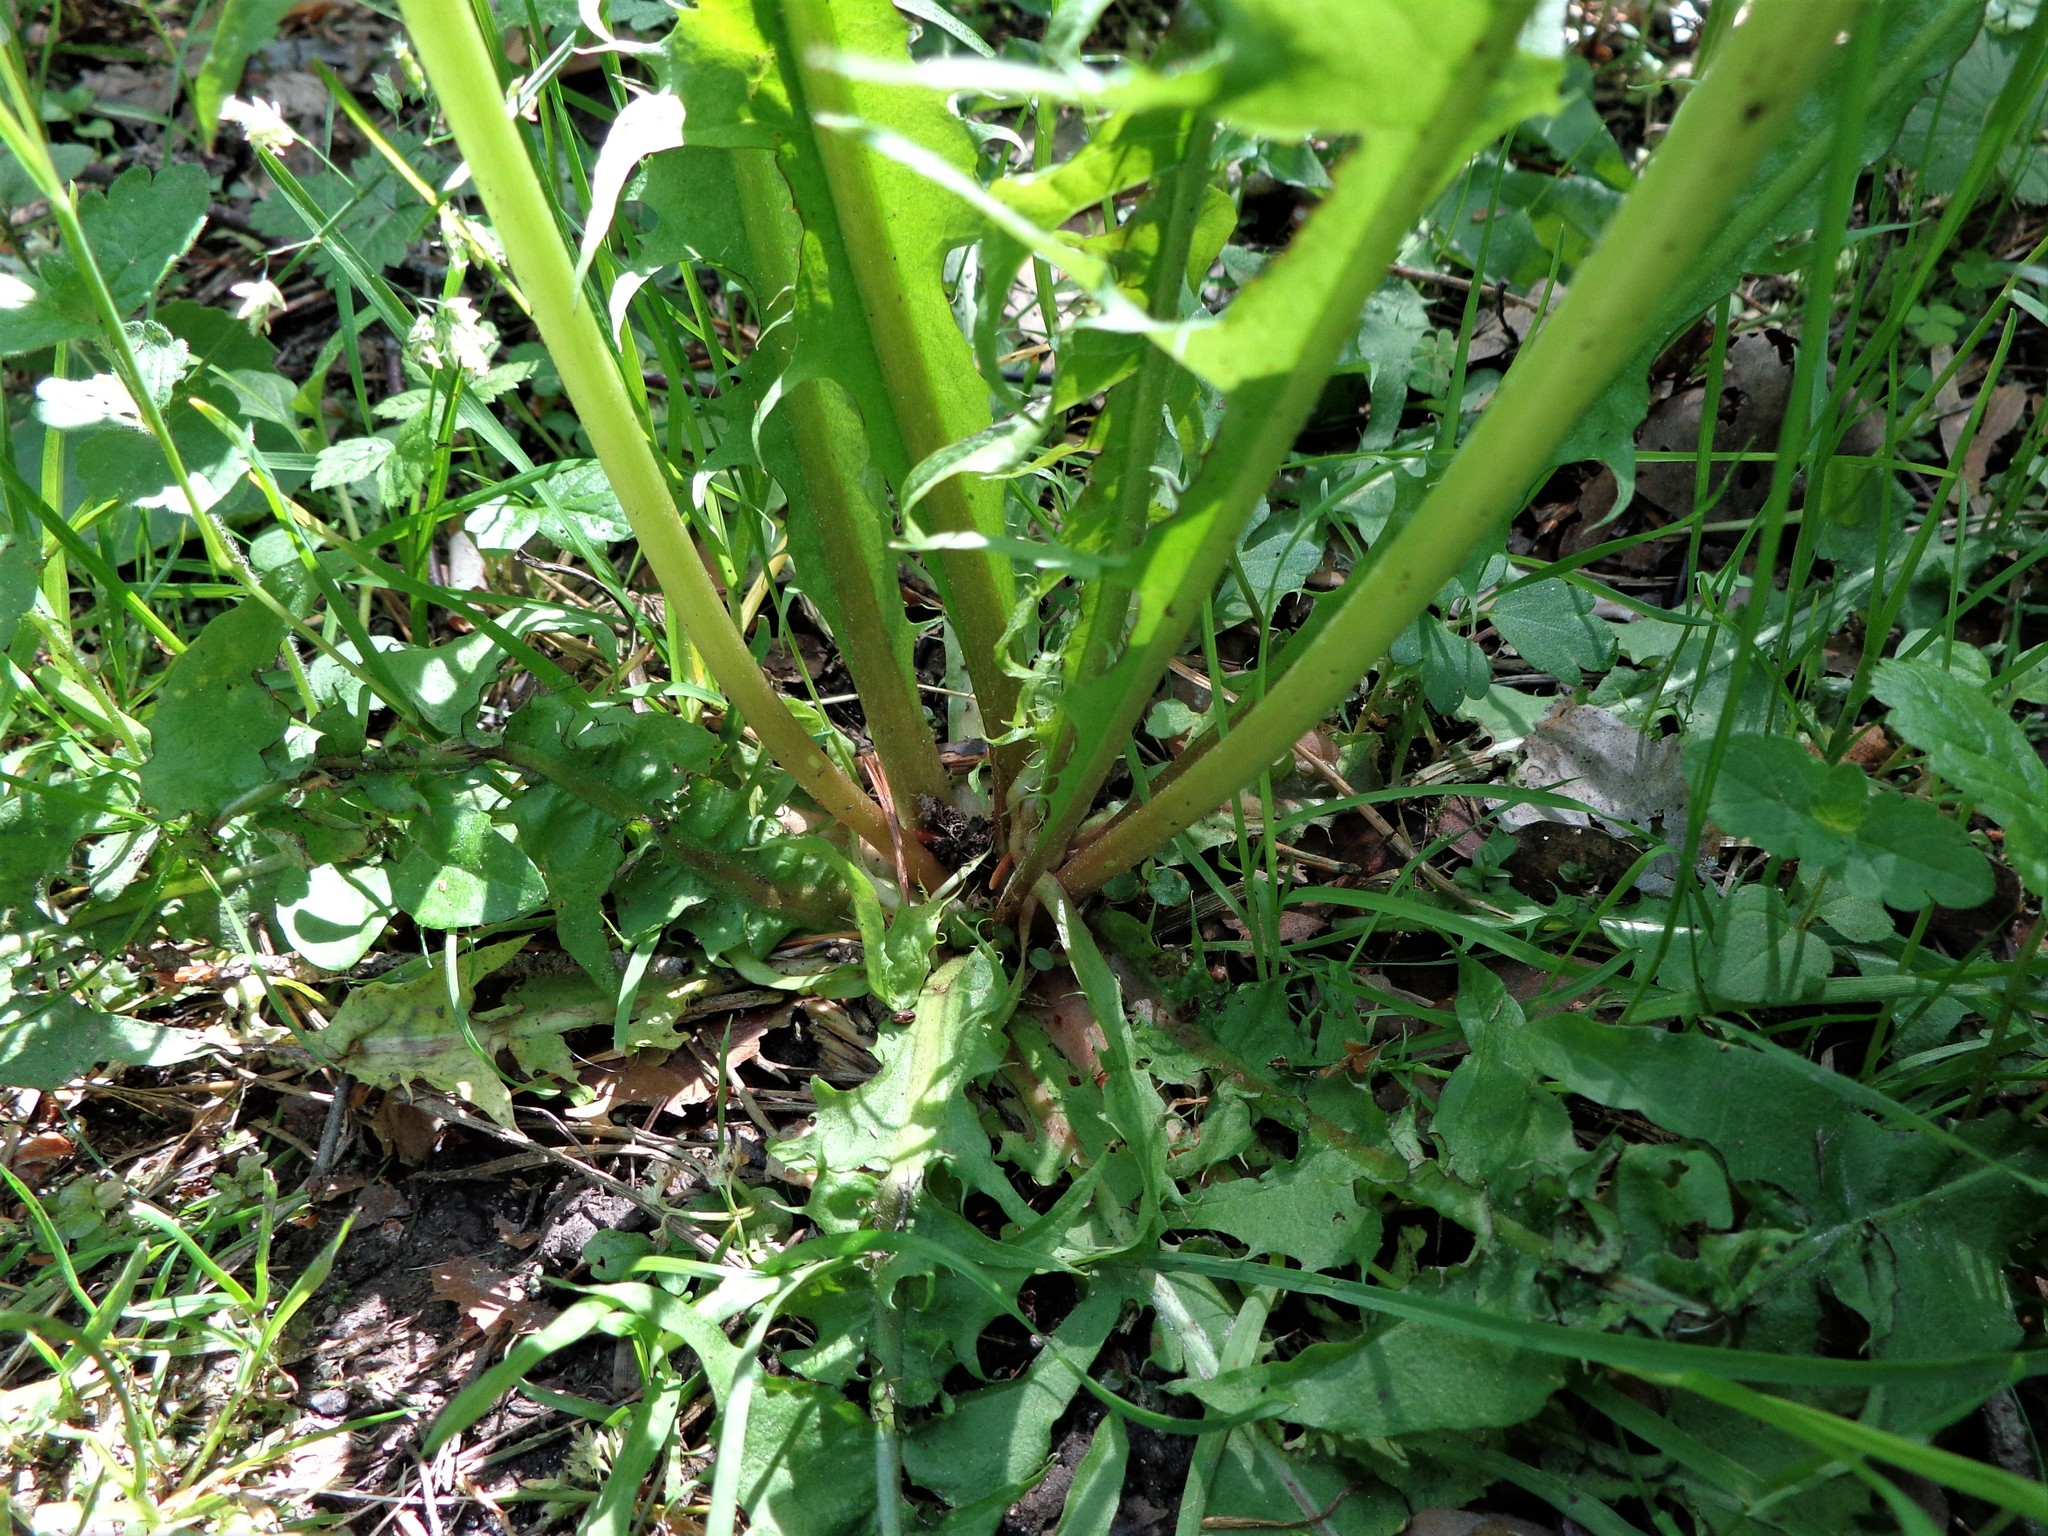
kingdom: Plantae
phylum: Tracheophyta
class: Magnoliopsida
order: Asterales
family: Asteraceae
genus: Taraxacum
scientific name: Taraxacum officinale
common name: Common dandelion
